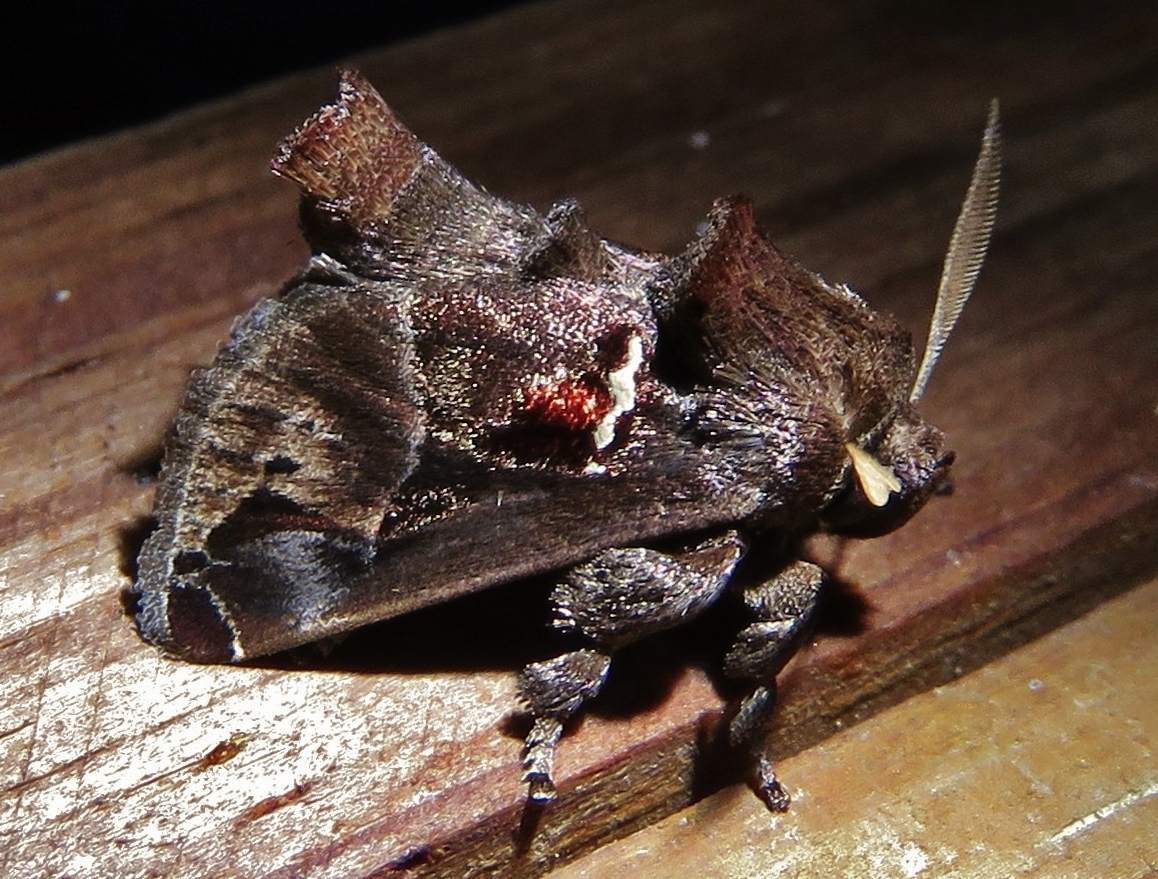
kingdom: Animalia
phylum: Arthropoda
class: Insecta
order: Lepidoptera
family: Limacodidae
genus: Semyra
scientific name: Semyra coarctata
